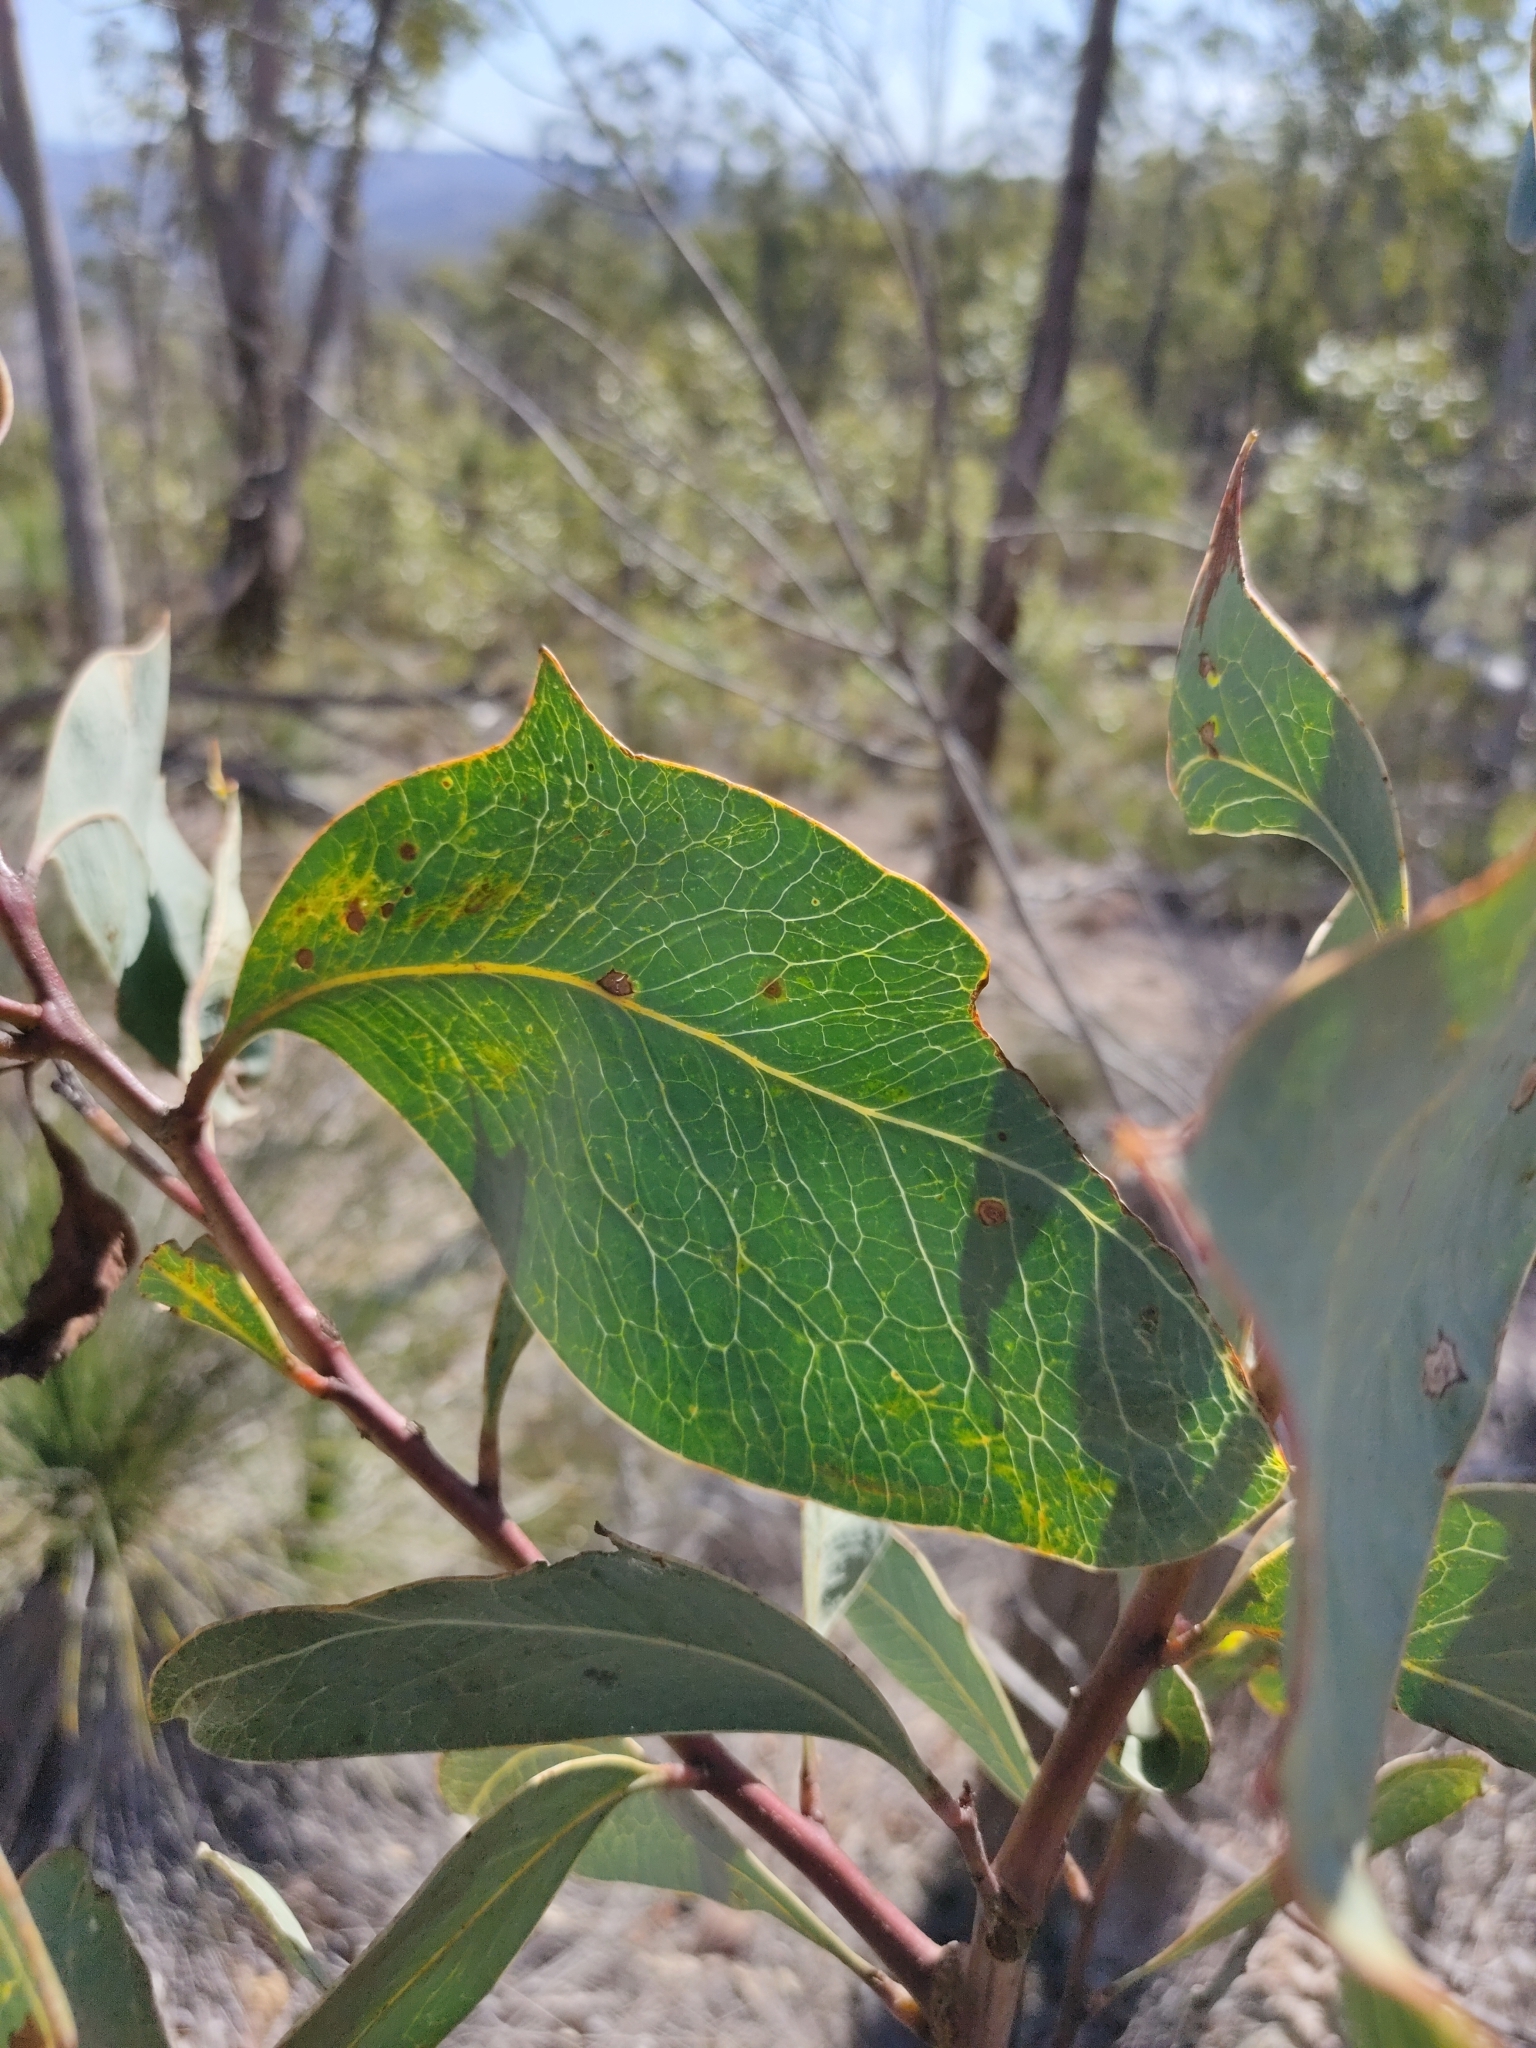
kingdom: Plantae
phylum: Tracheophyta
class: Magnoliopsida
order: Fabales
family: Fabaceae
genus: Acacia
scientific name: Acacia bancroftiorum
